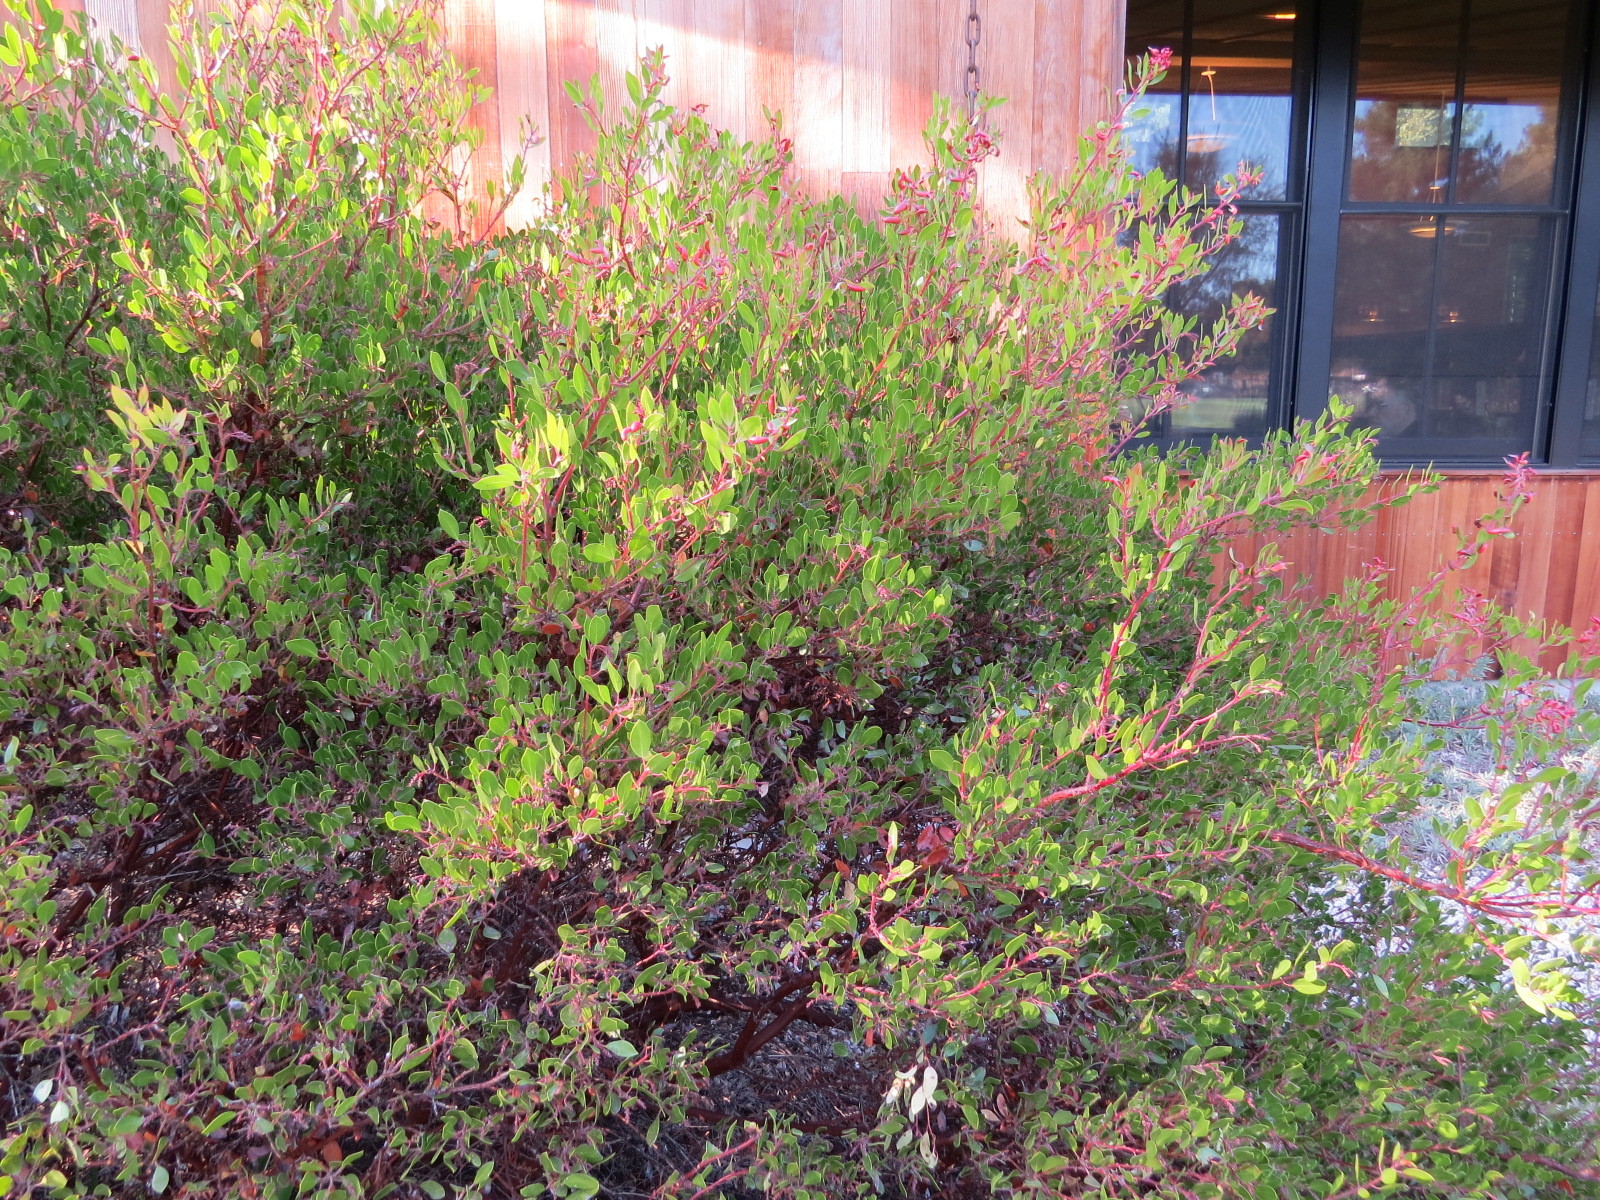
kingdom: Animalia
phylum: Arthropoda
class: Insecta
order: Hemiptera
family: Aphididae
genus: Tamalia
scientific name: Tamalia coweni
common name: Manzanita leafgall aphid
